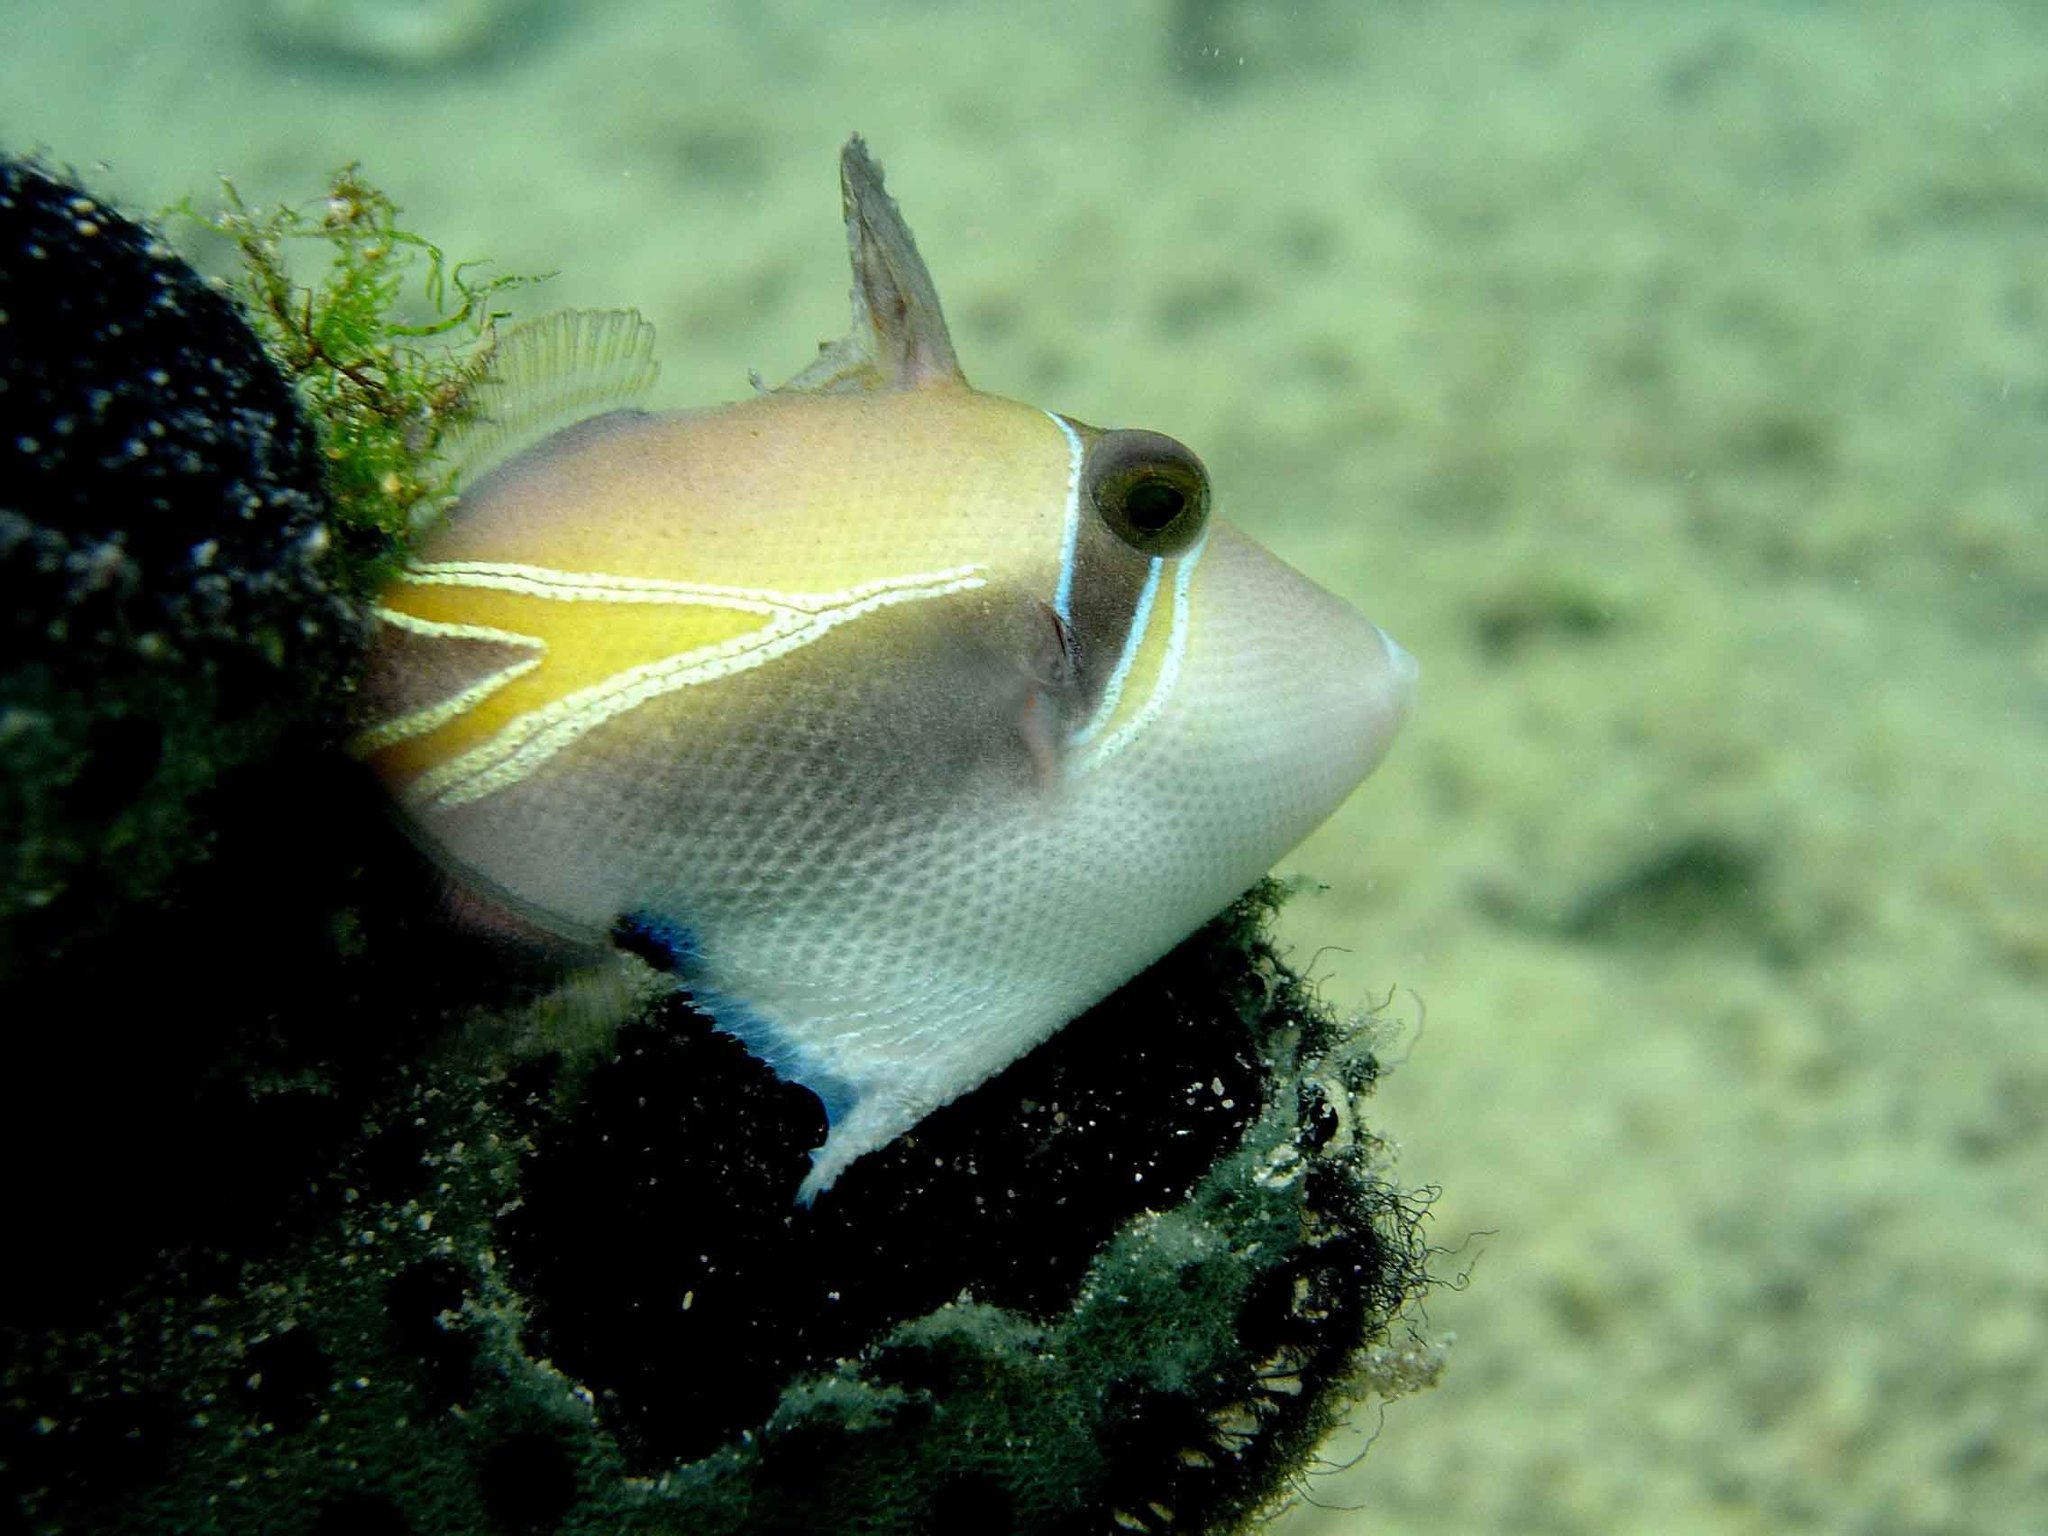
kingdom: Animalia
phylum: Chordata
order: Tetraodontiformes
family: Balistidae
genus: Rhinecanthus
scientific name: Rhinecanthus rectangulus
